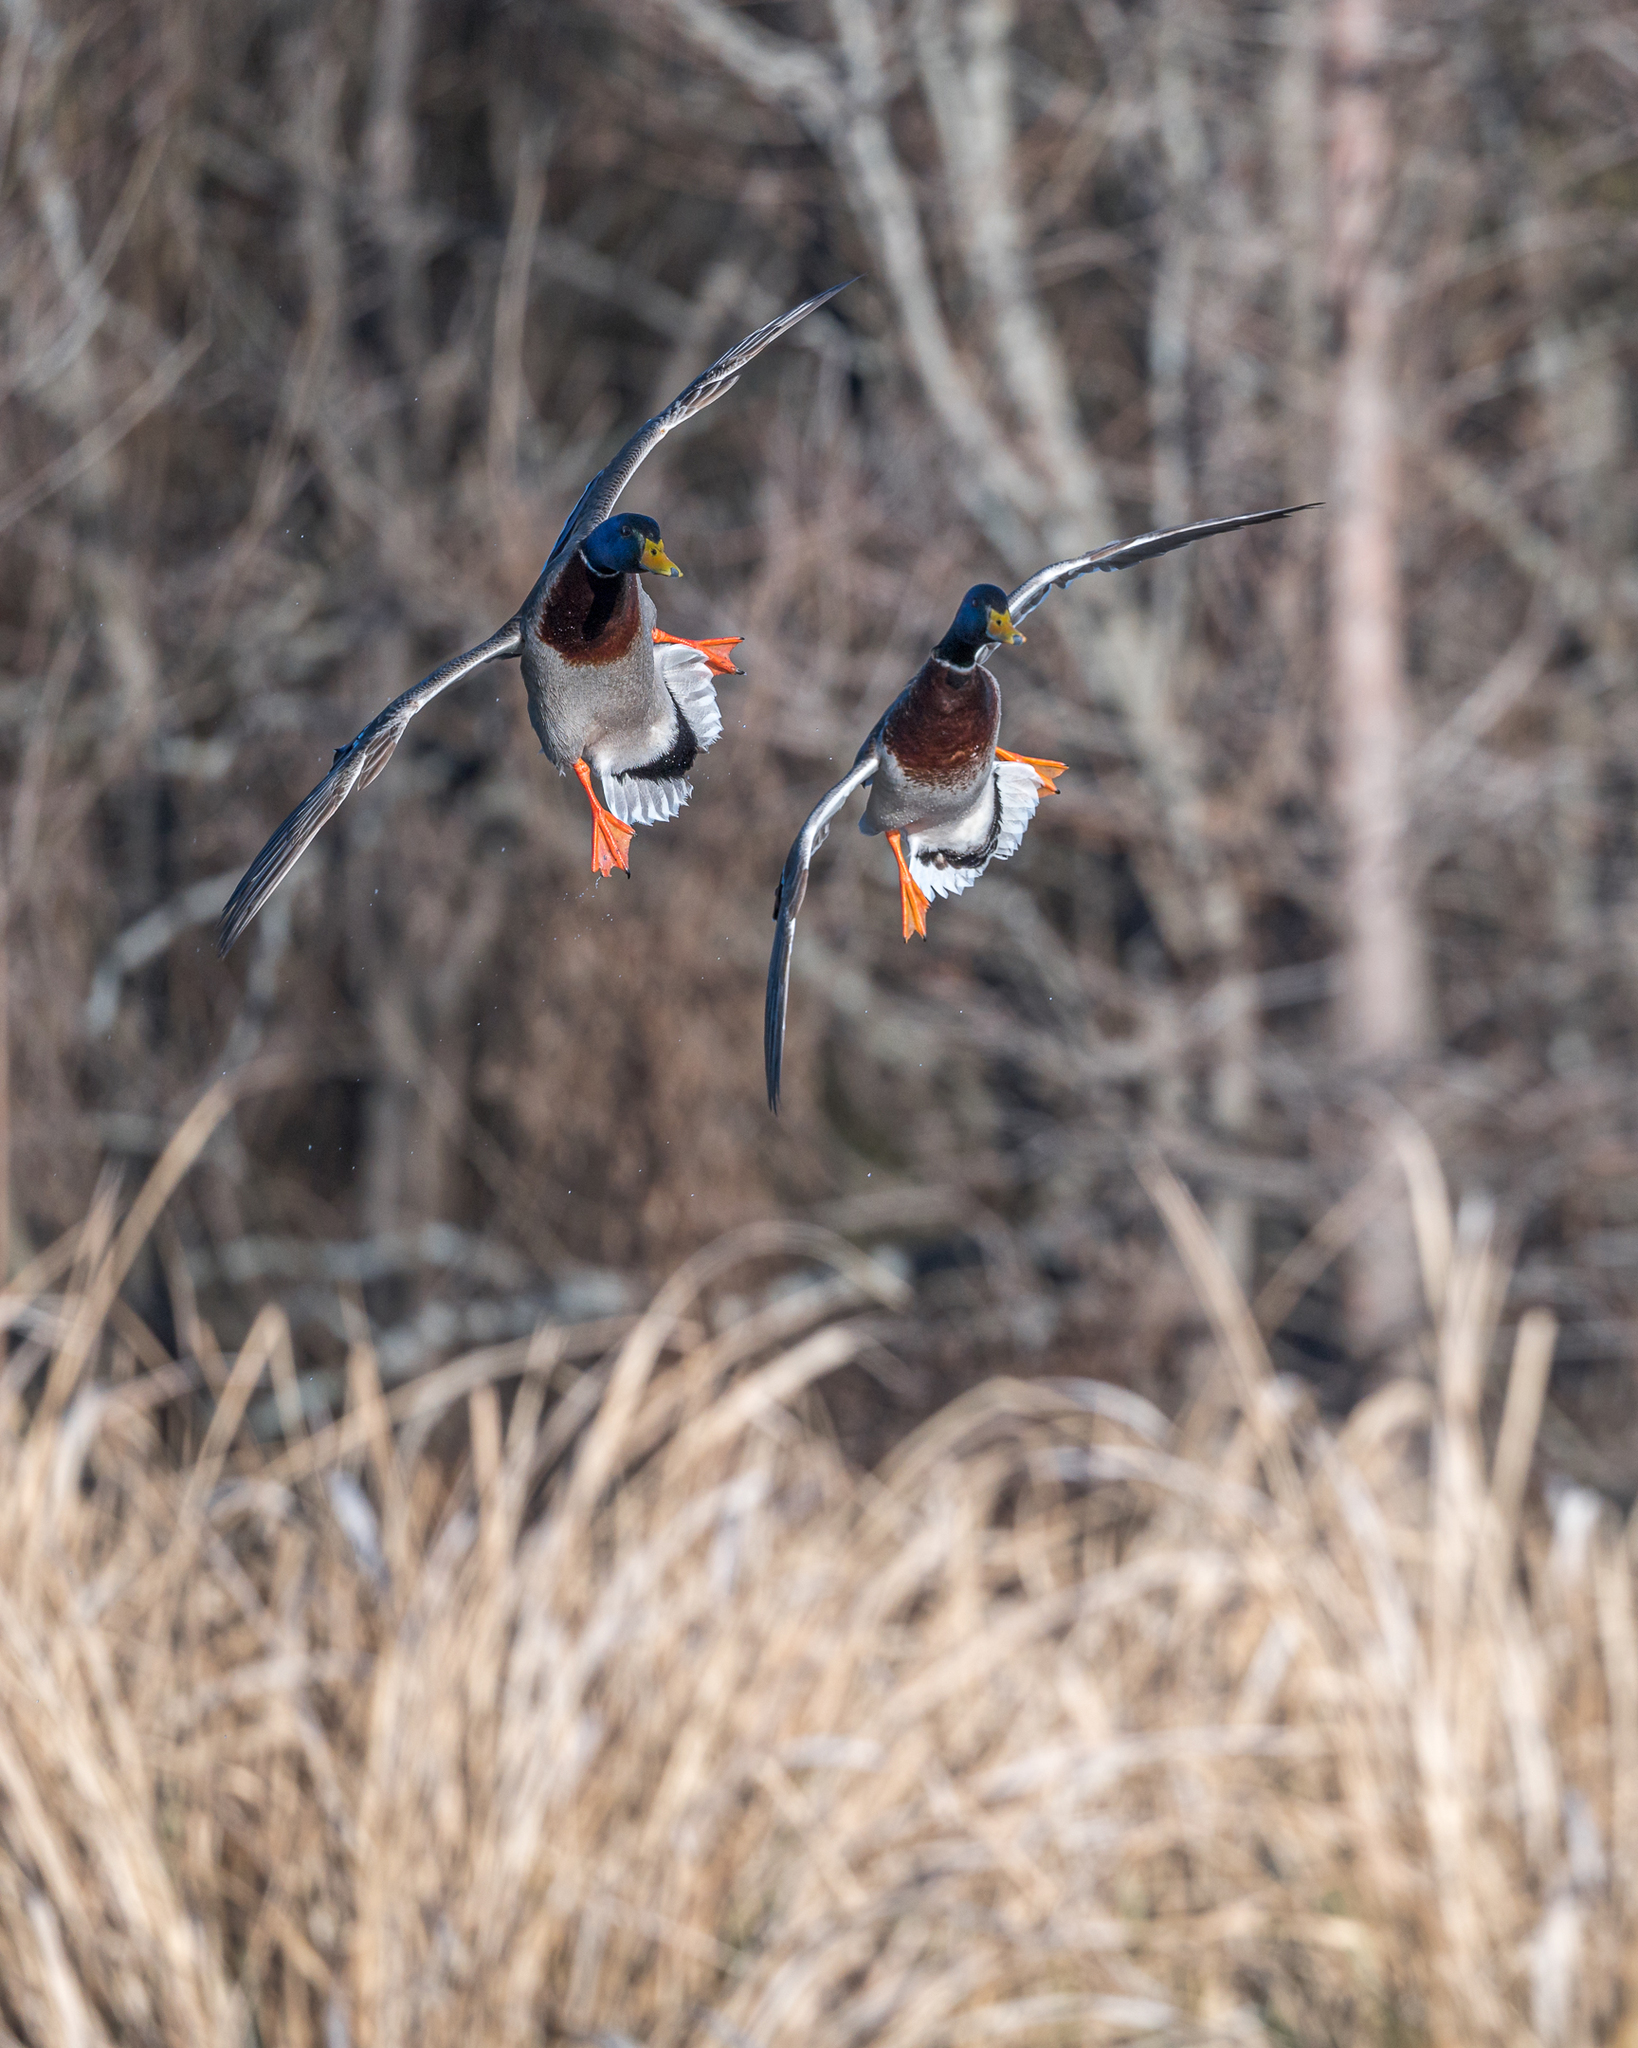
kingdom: Animalia
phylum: Chordata
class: Aves
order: Anseriformes
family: Anatidae
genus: Anas
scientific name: Anas platyrhynchos
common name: Mallard
